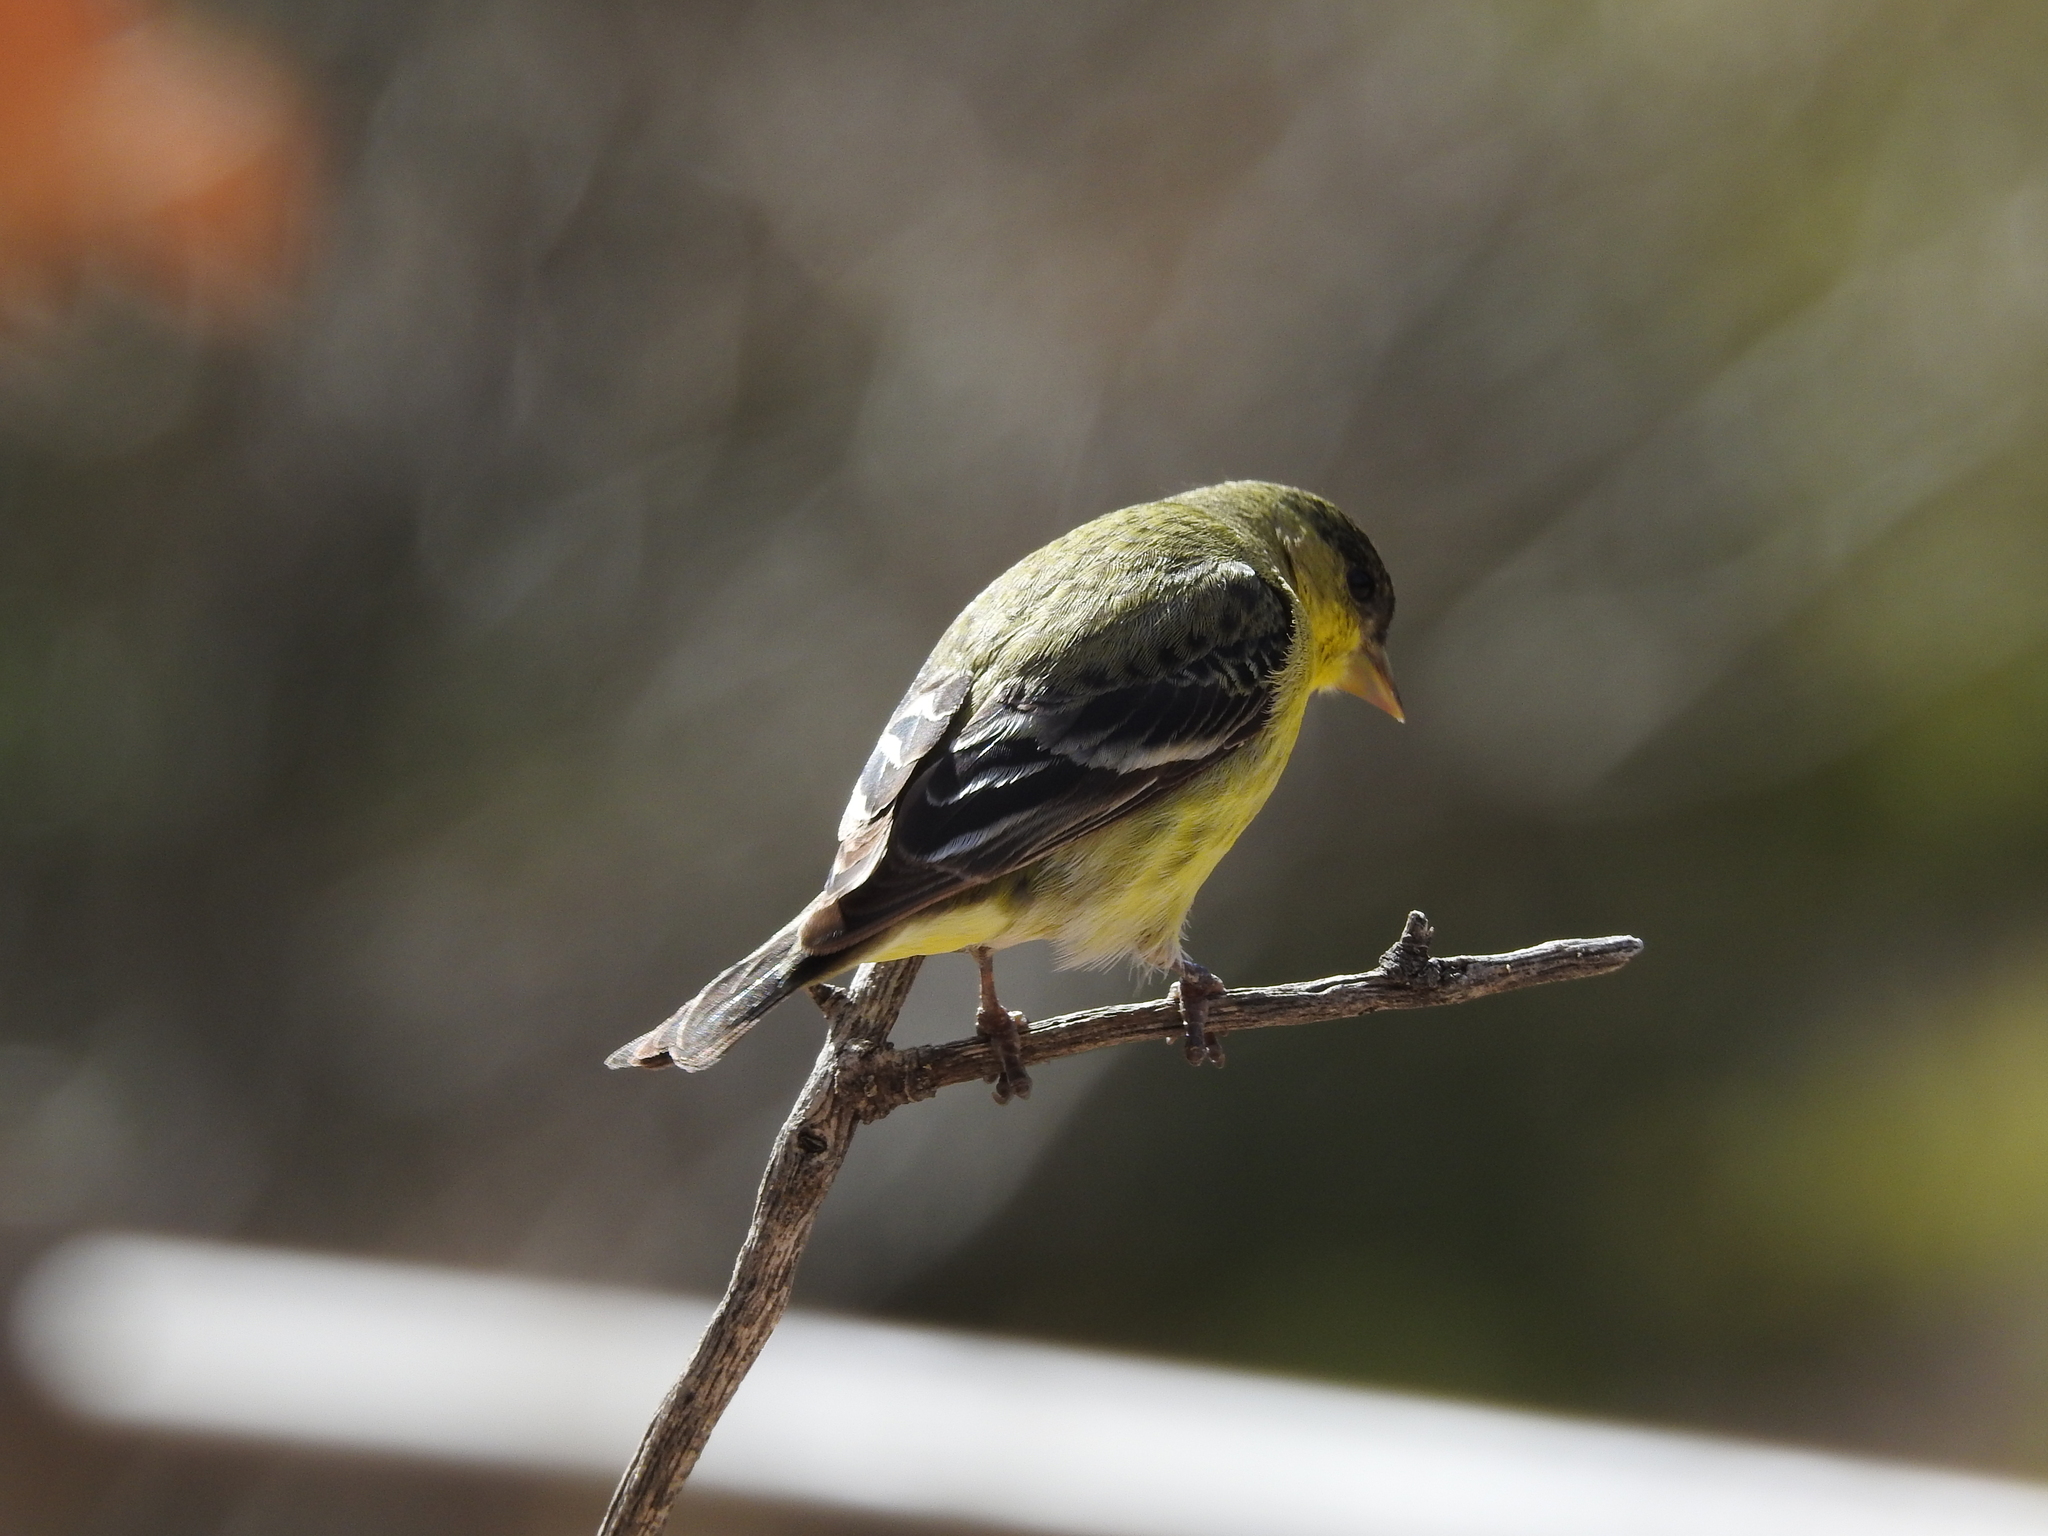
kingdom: Animalia
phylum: Chordata
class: Aves
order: Passeriformes
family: Fringillidae
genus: Spinus
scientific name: Spinus psaltria
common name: Lesser goldfinch
